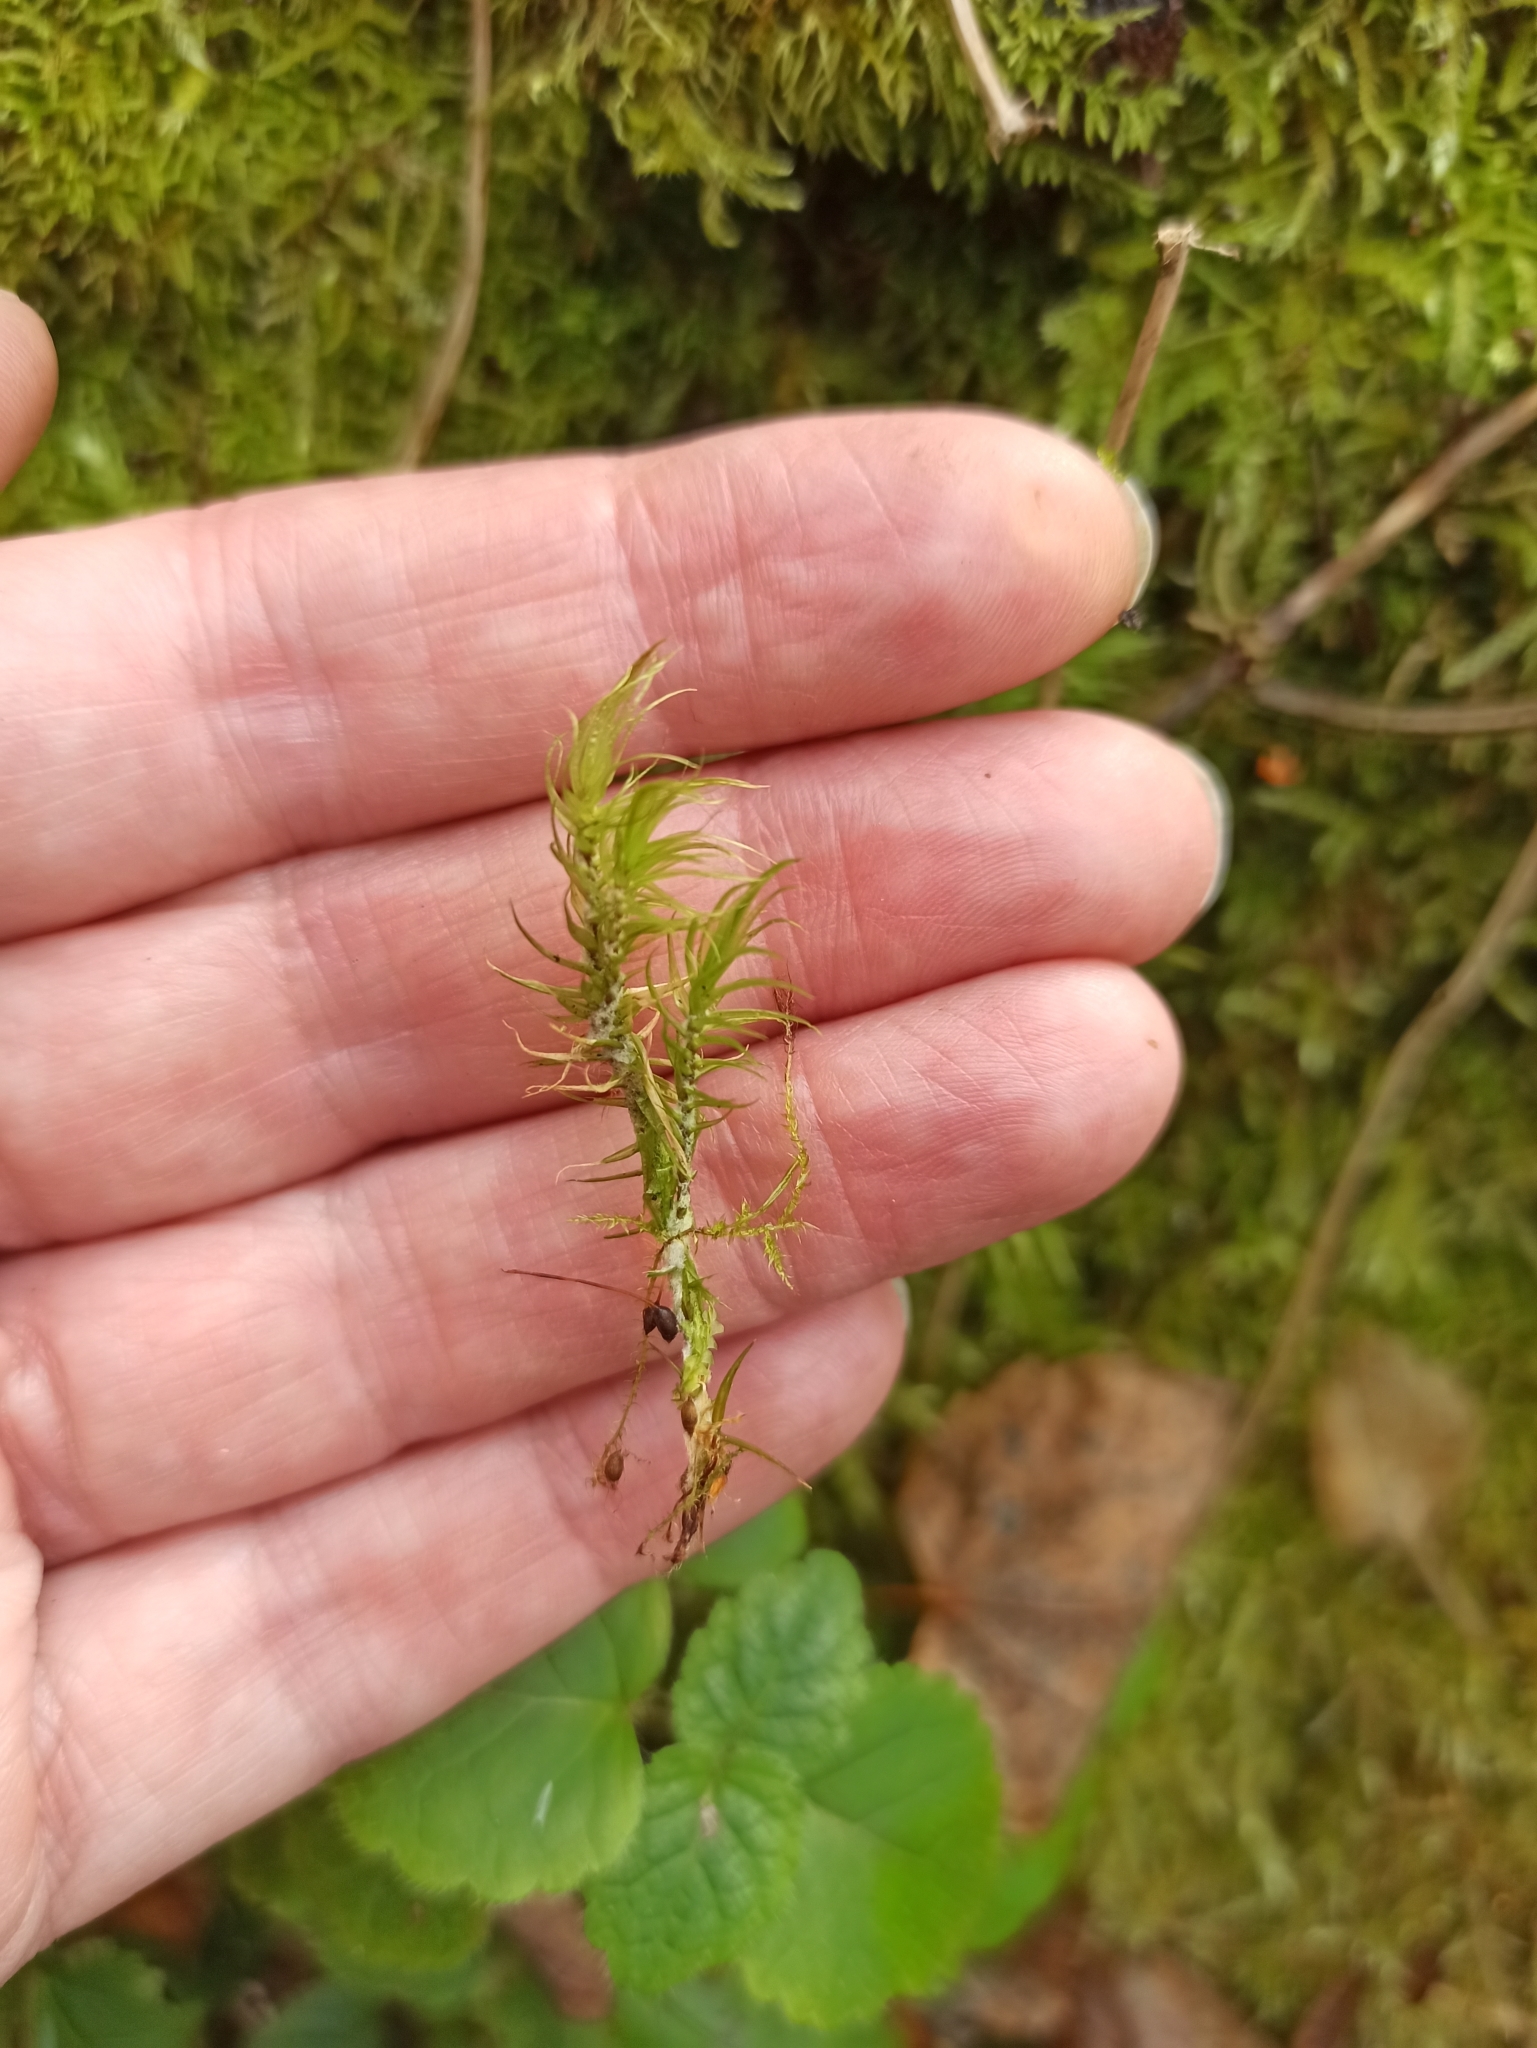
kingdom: Plantae
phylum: Bryophyta
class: Bryopsida
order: Dicranales
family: Dicranaceae
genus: Dicranum
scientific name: Dicranum scoparium
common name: Broom fork-moss
